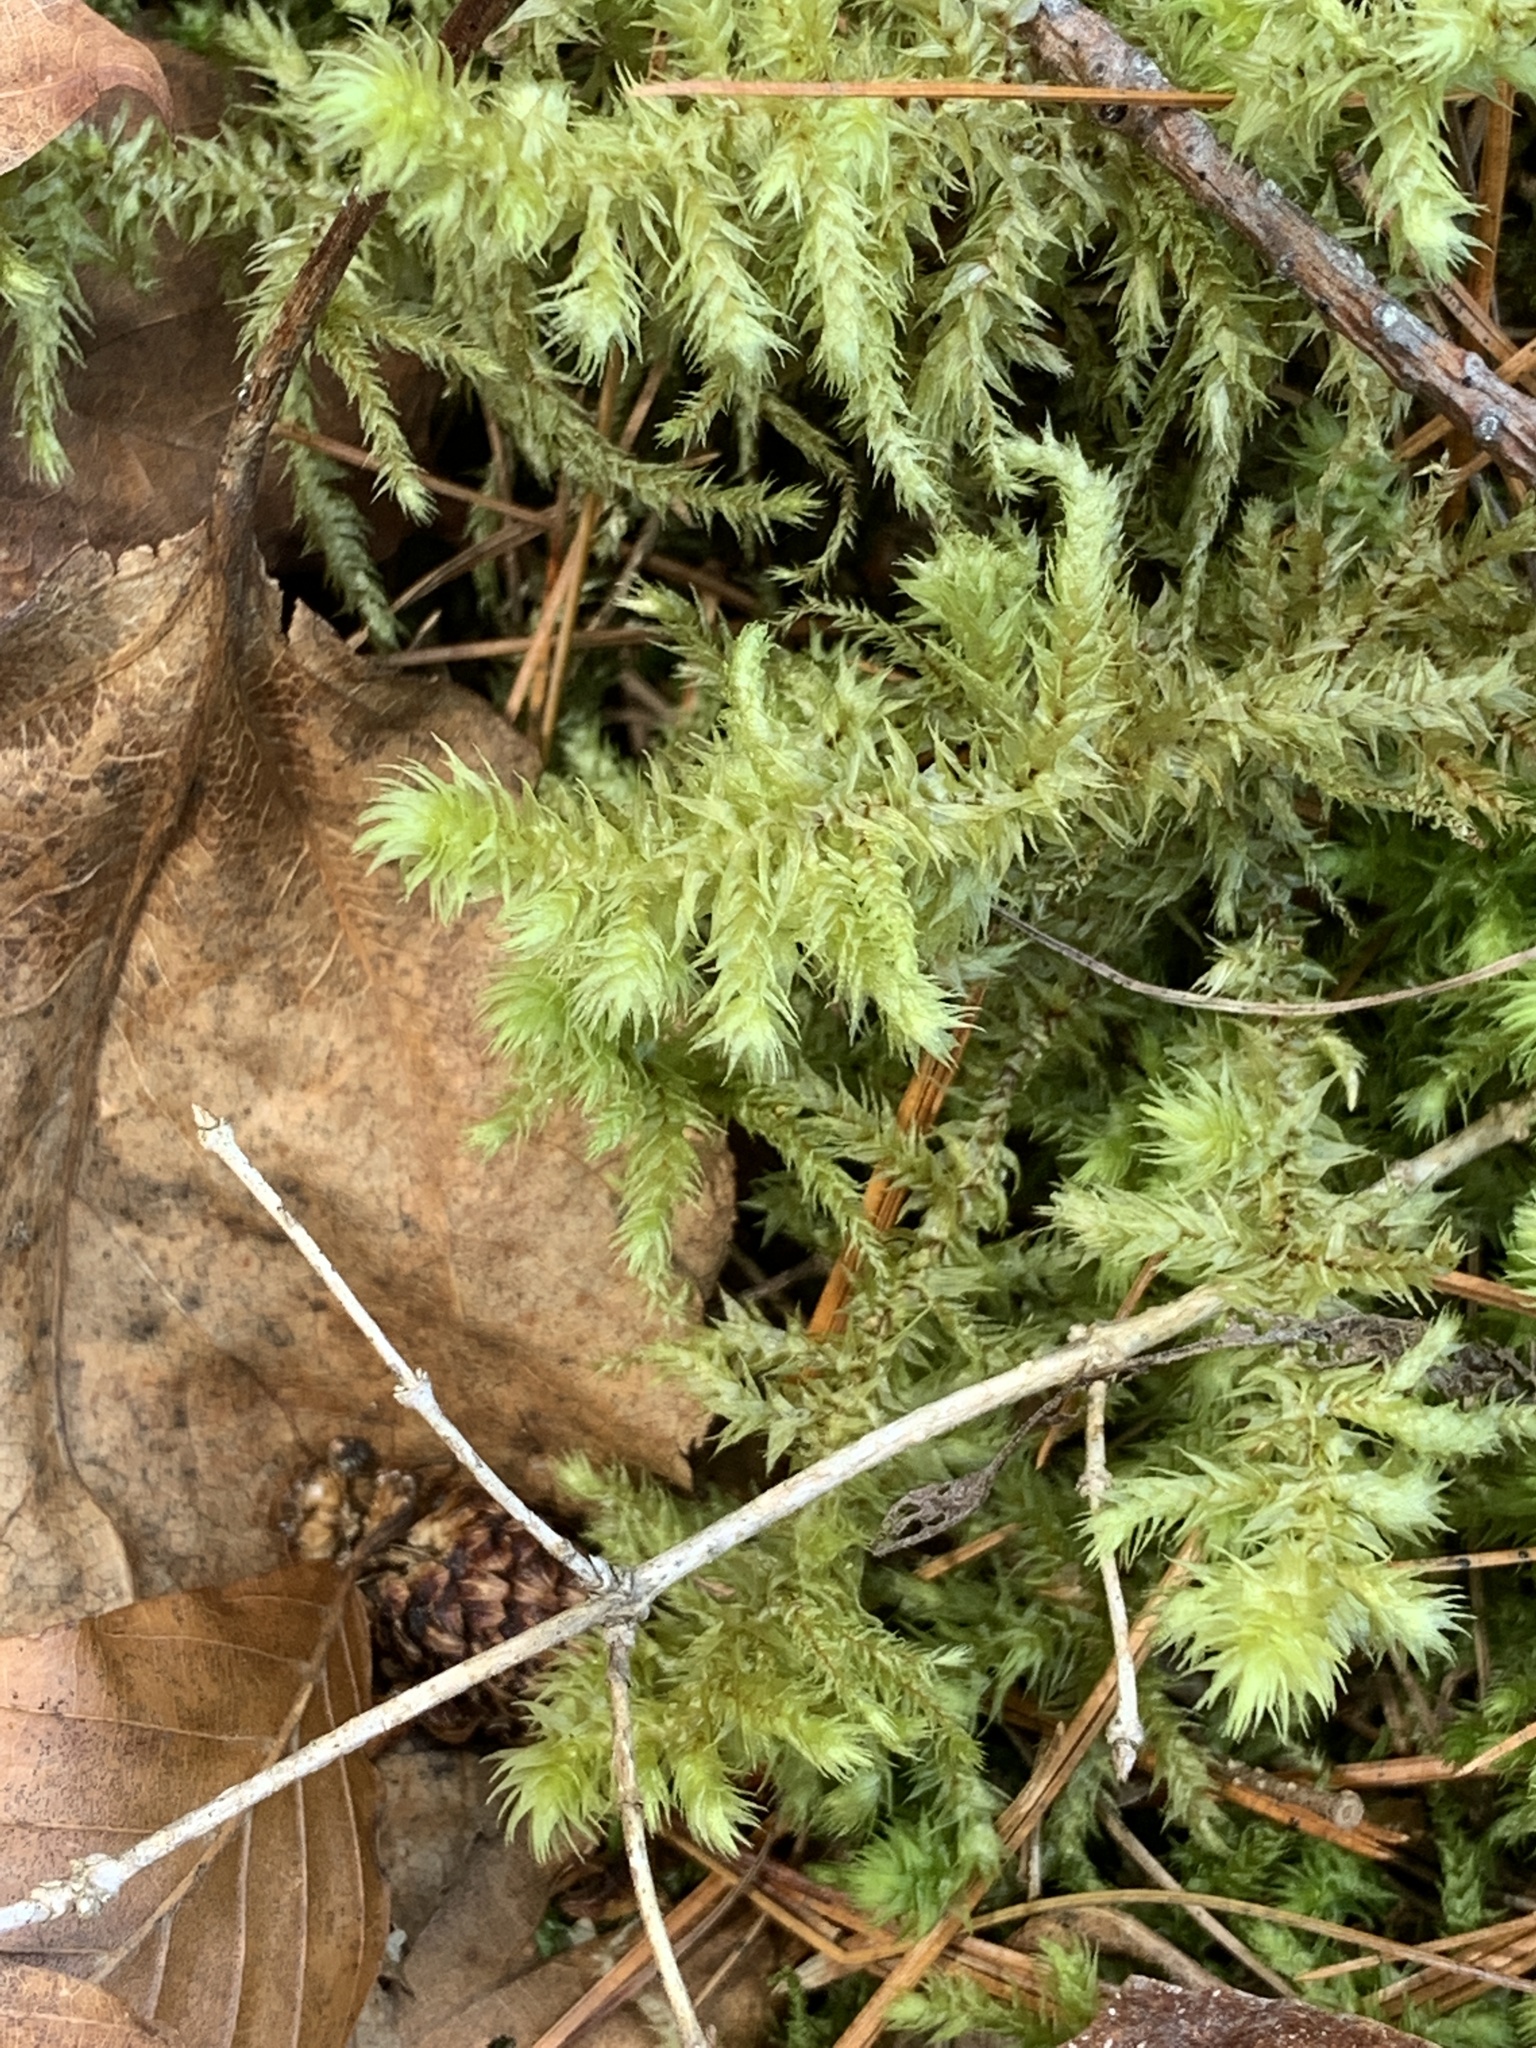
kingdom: Plantae
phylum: Bryophyta
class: Bryopsida
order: Hypnales
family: Hylocomiaceae
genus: Hylocomiadelphus
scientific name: Hylocomiadelphus triquetrus
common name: Rough goose neck moss
